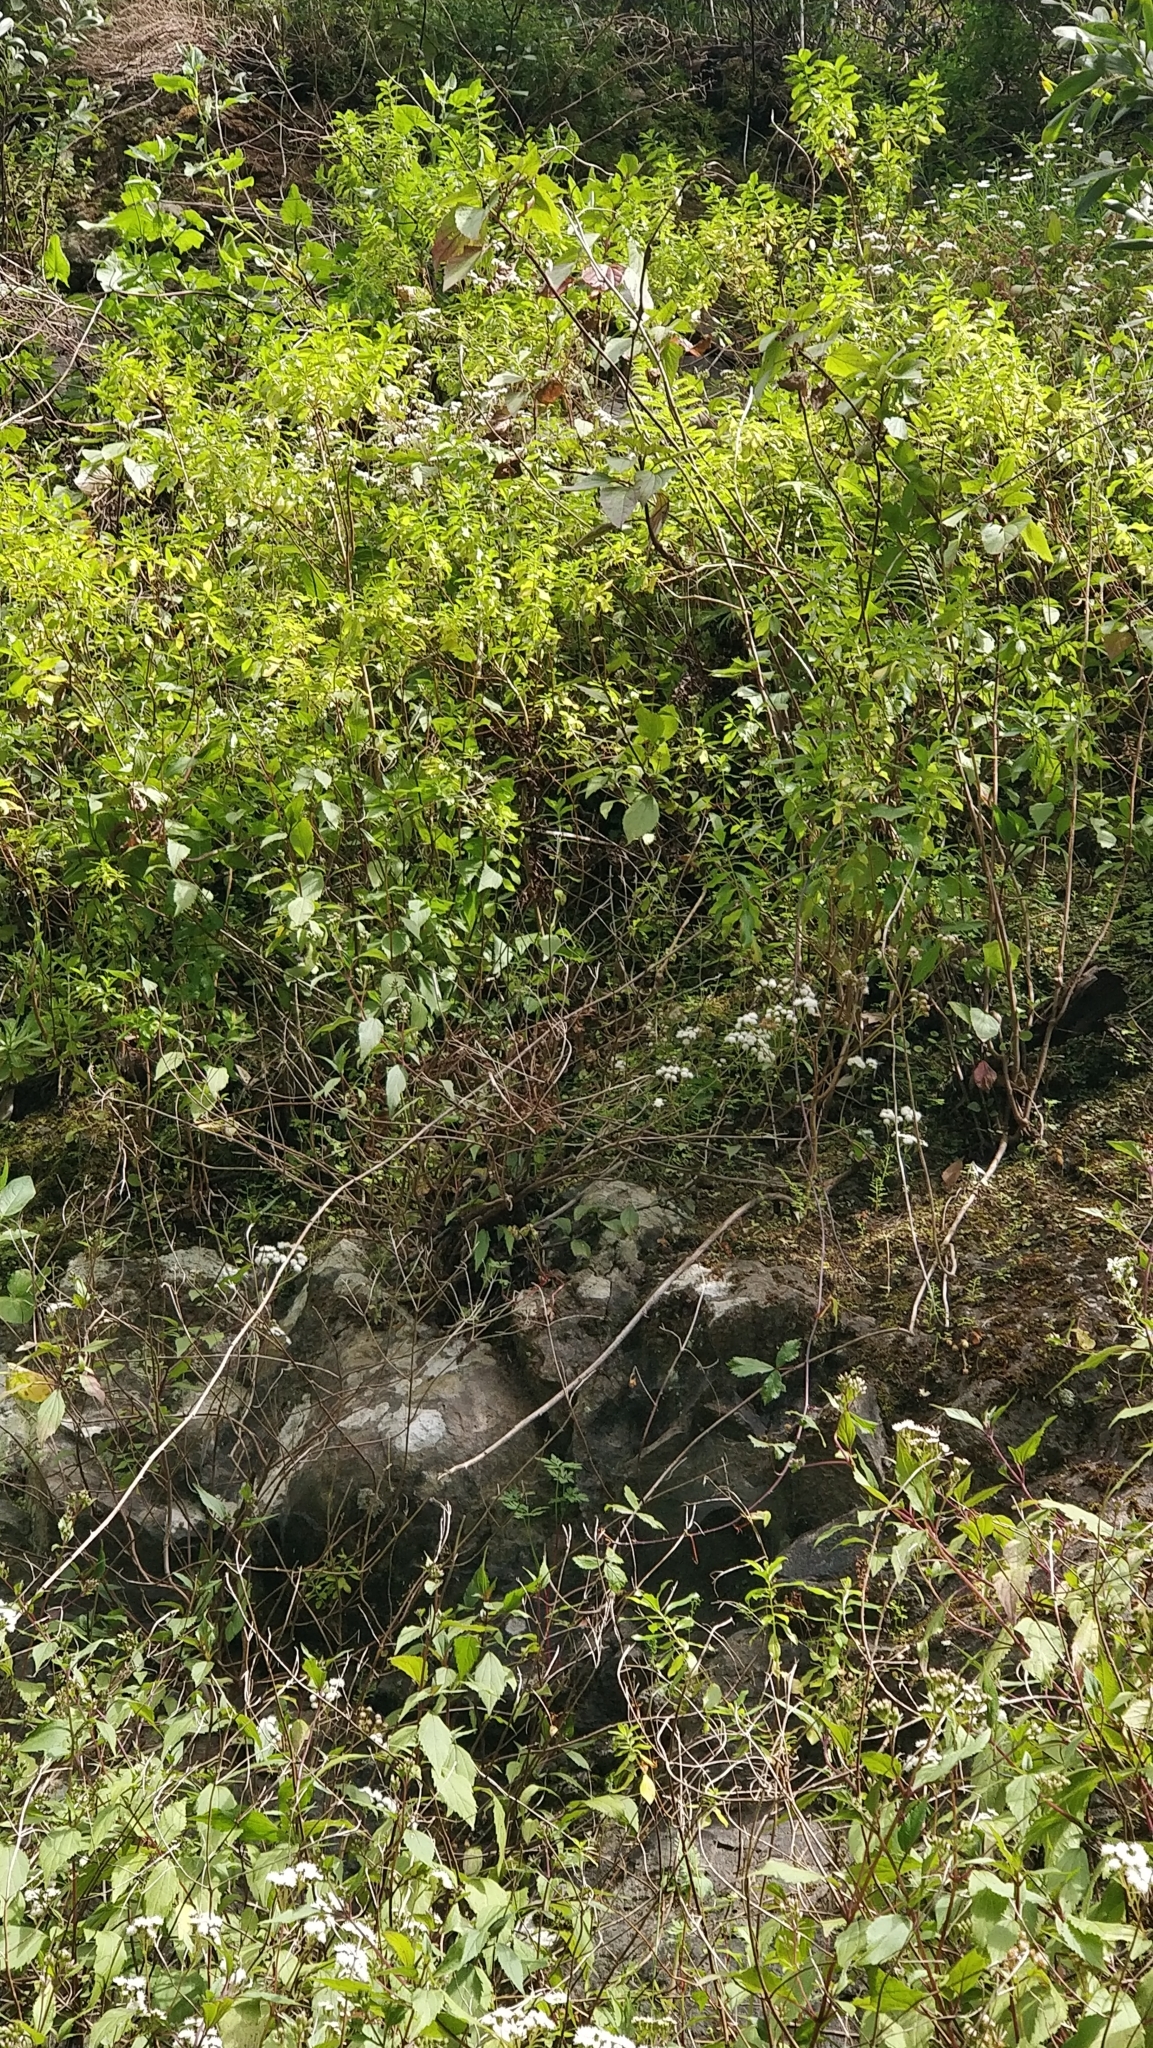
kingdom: Plantae
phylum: Tracheophyta
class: Magnoliopsida
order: Malpighiales
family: Hypericaceae
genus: Hypericum
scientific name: Hypericum glandulosum
